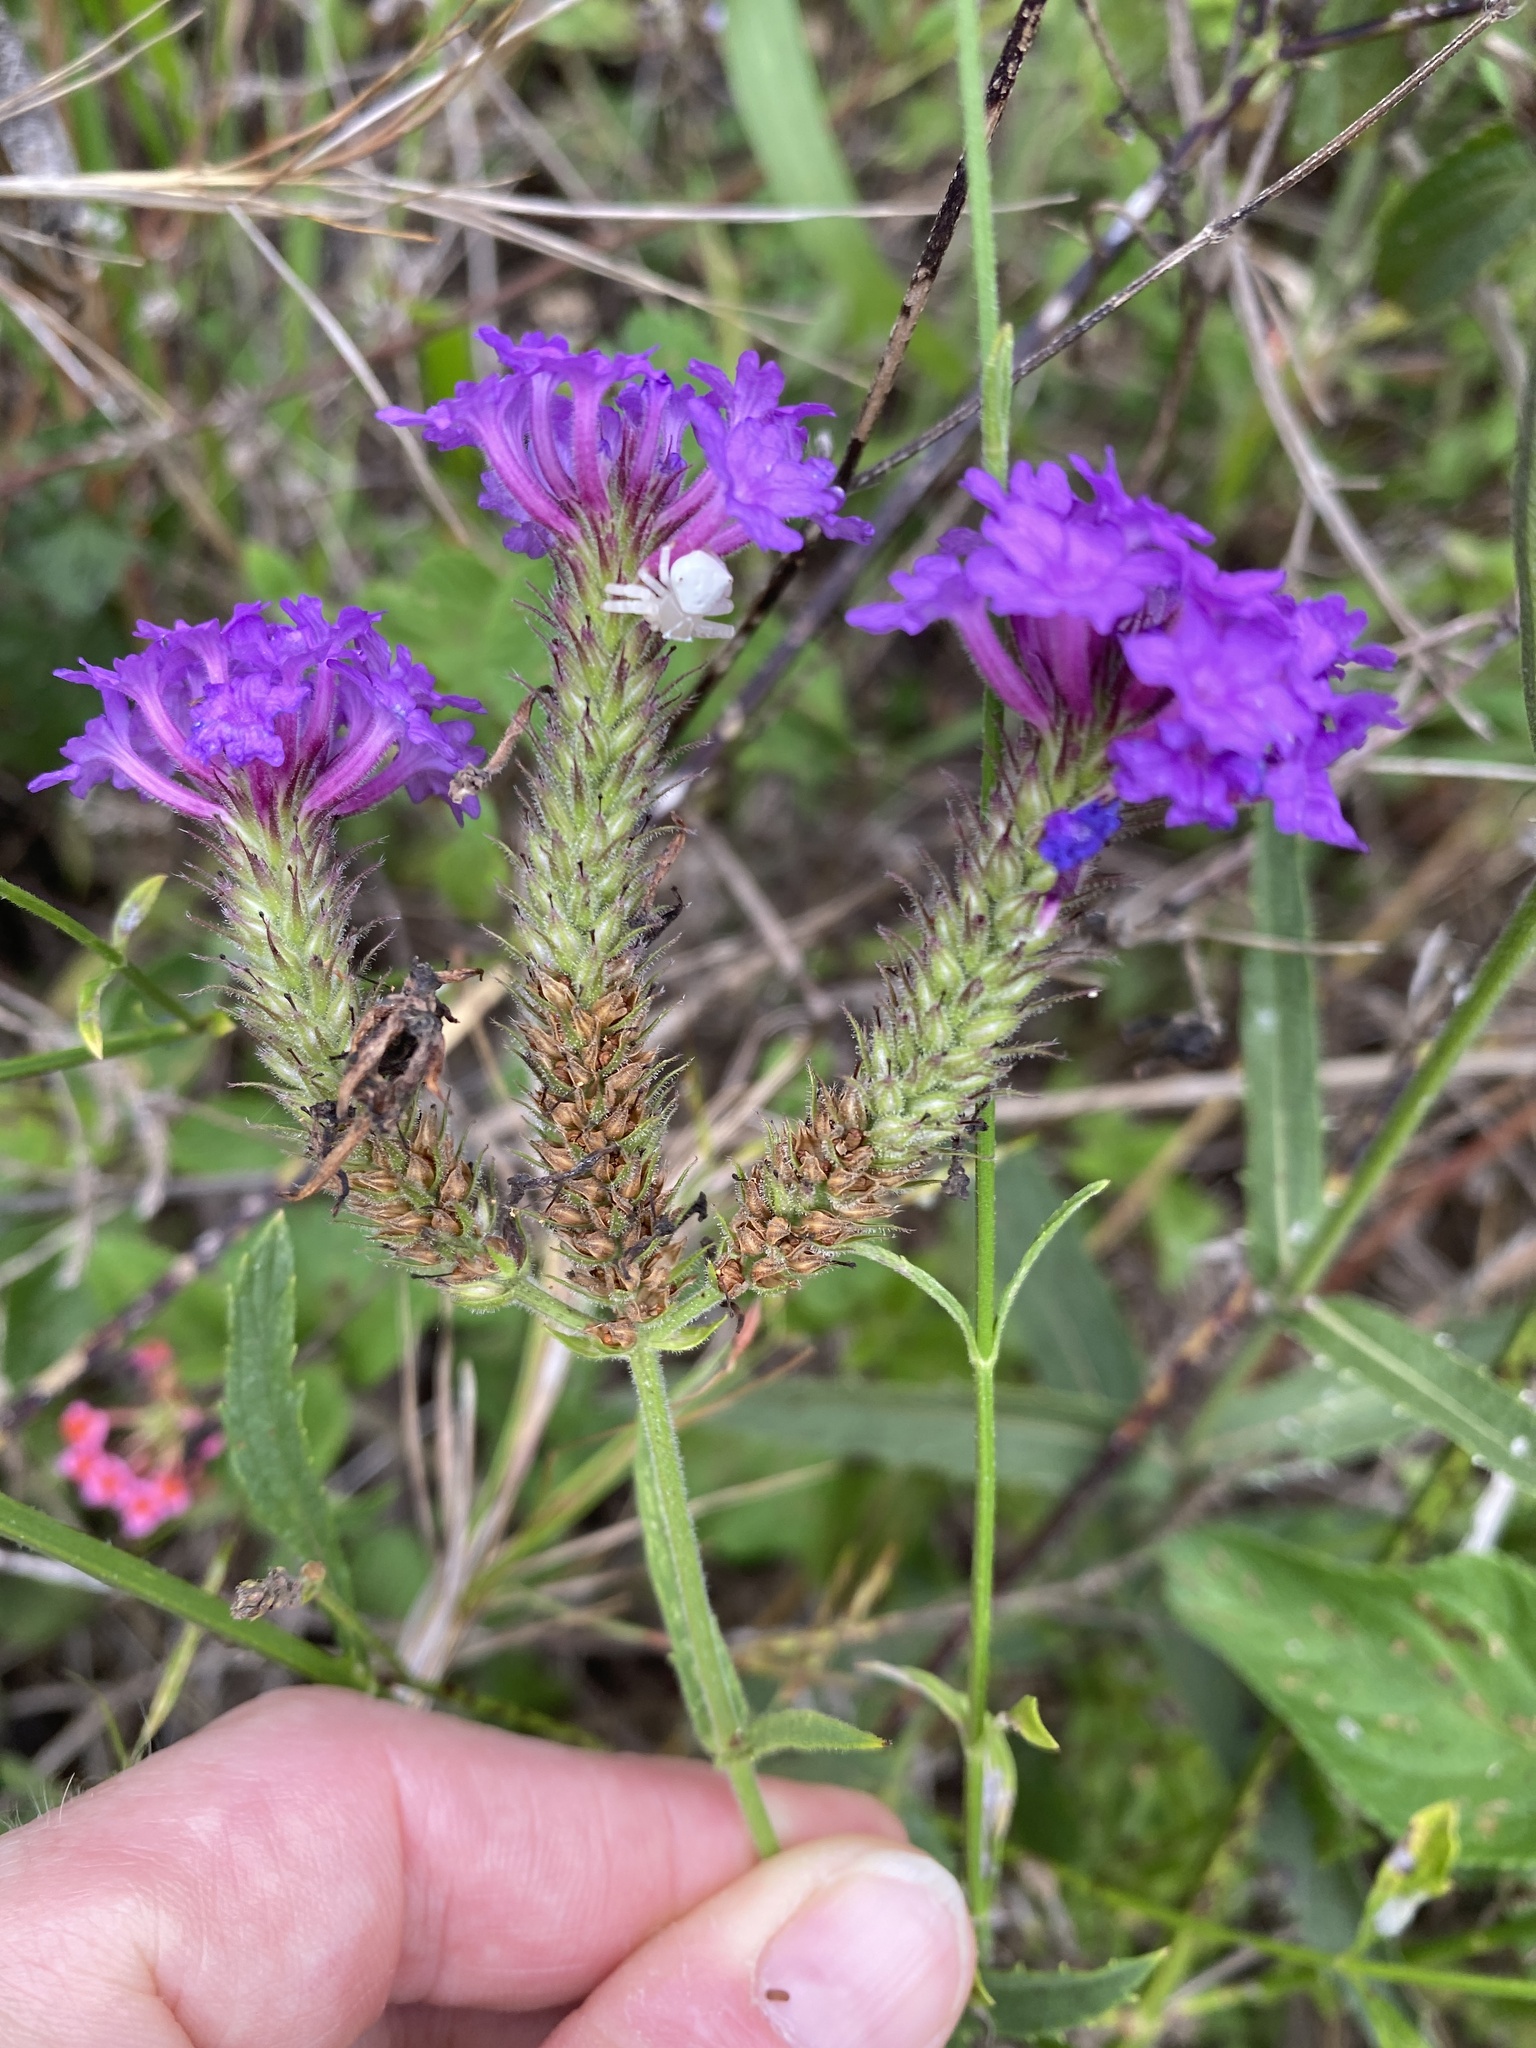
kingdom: Plantae
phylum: Tracheophyta
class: Magnoliopsida
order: Lamiales
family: Verbenaceae
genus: Verbena
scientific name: Verbena rigida
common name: Slender vervain
